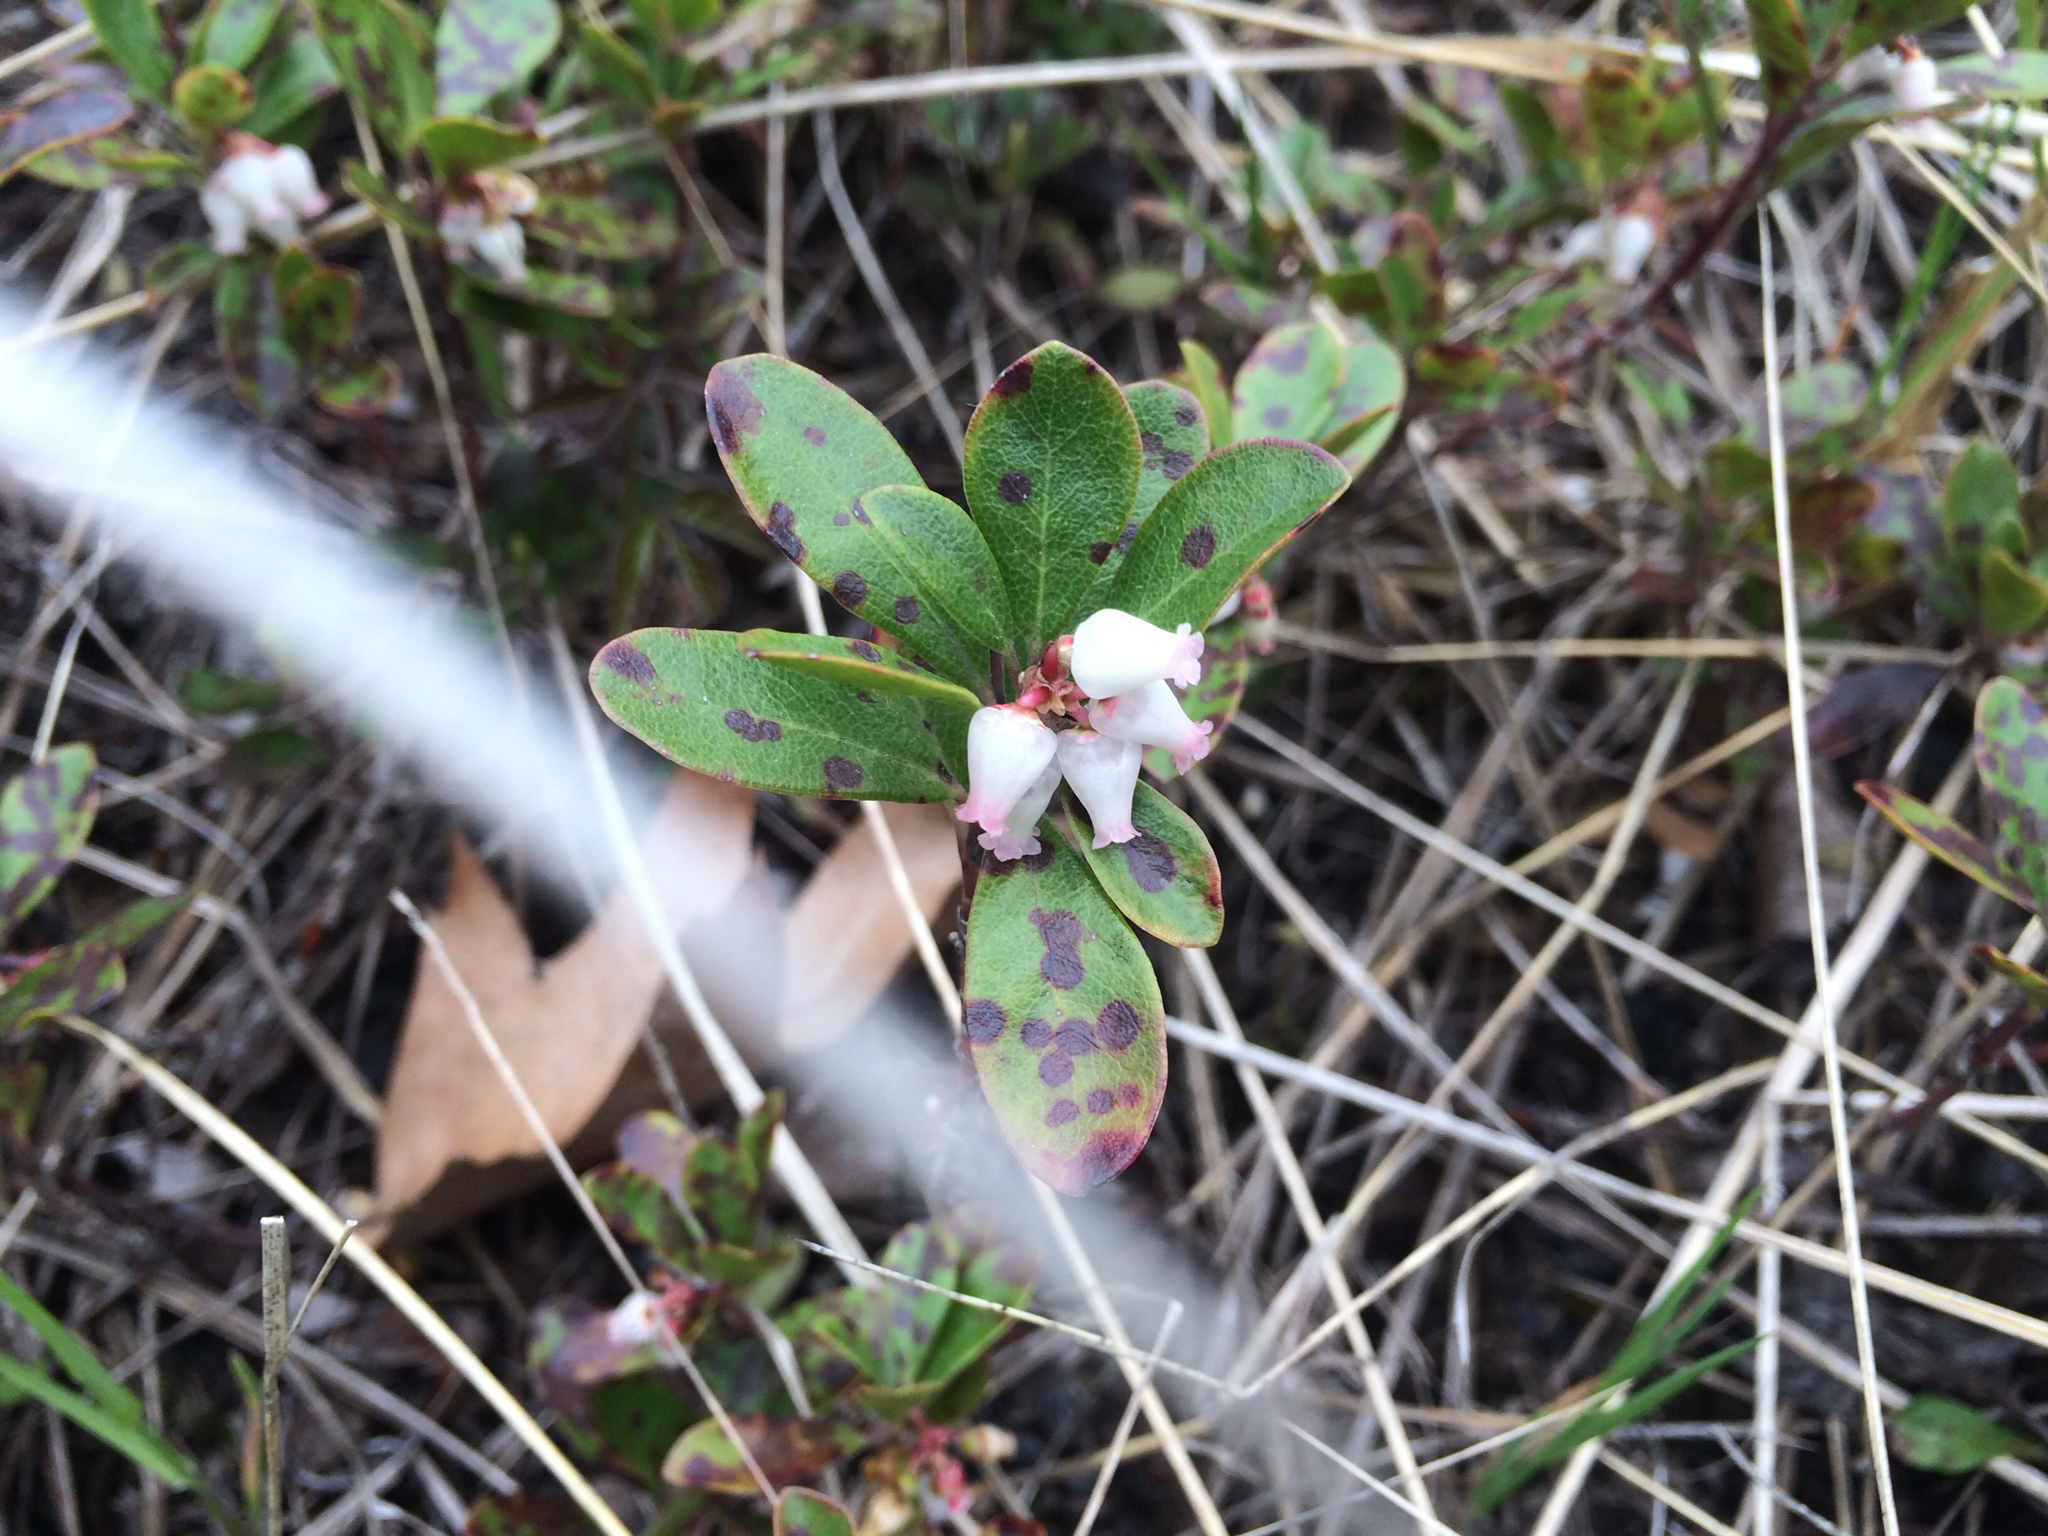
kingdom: Plantae
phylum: Tracheophyta
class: Magnoliopsida
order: Ericales
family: Ericaceae
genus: Arctostaphylos
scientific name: Arctostaphylos uva-ursi
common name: Bearberry
